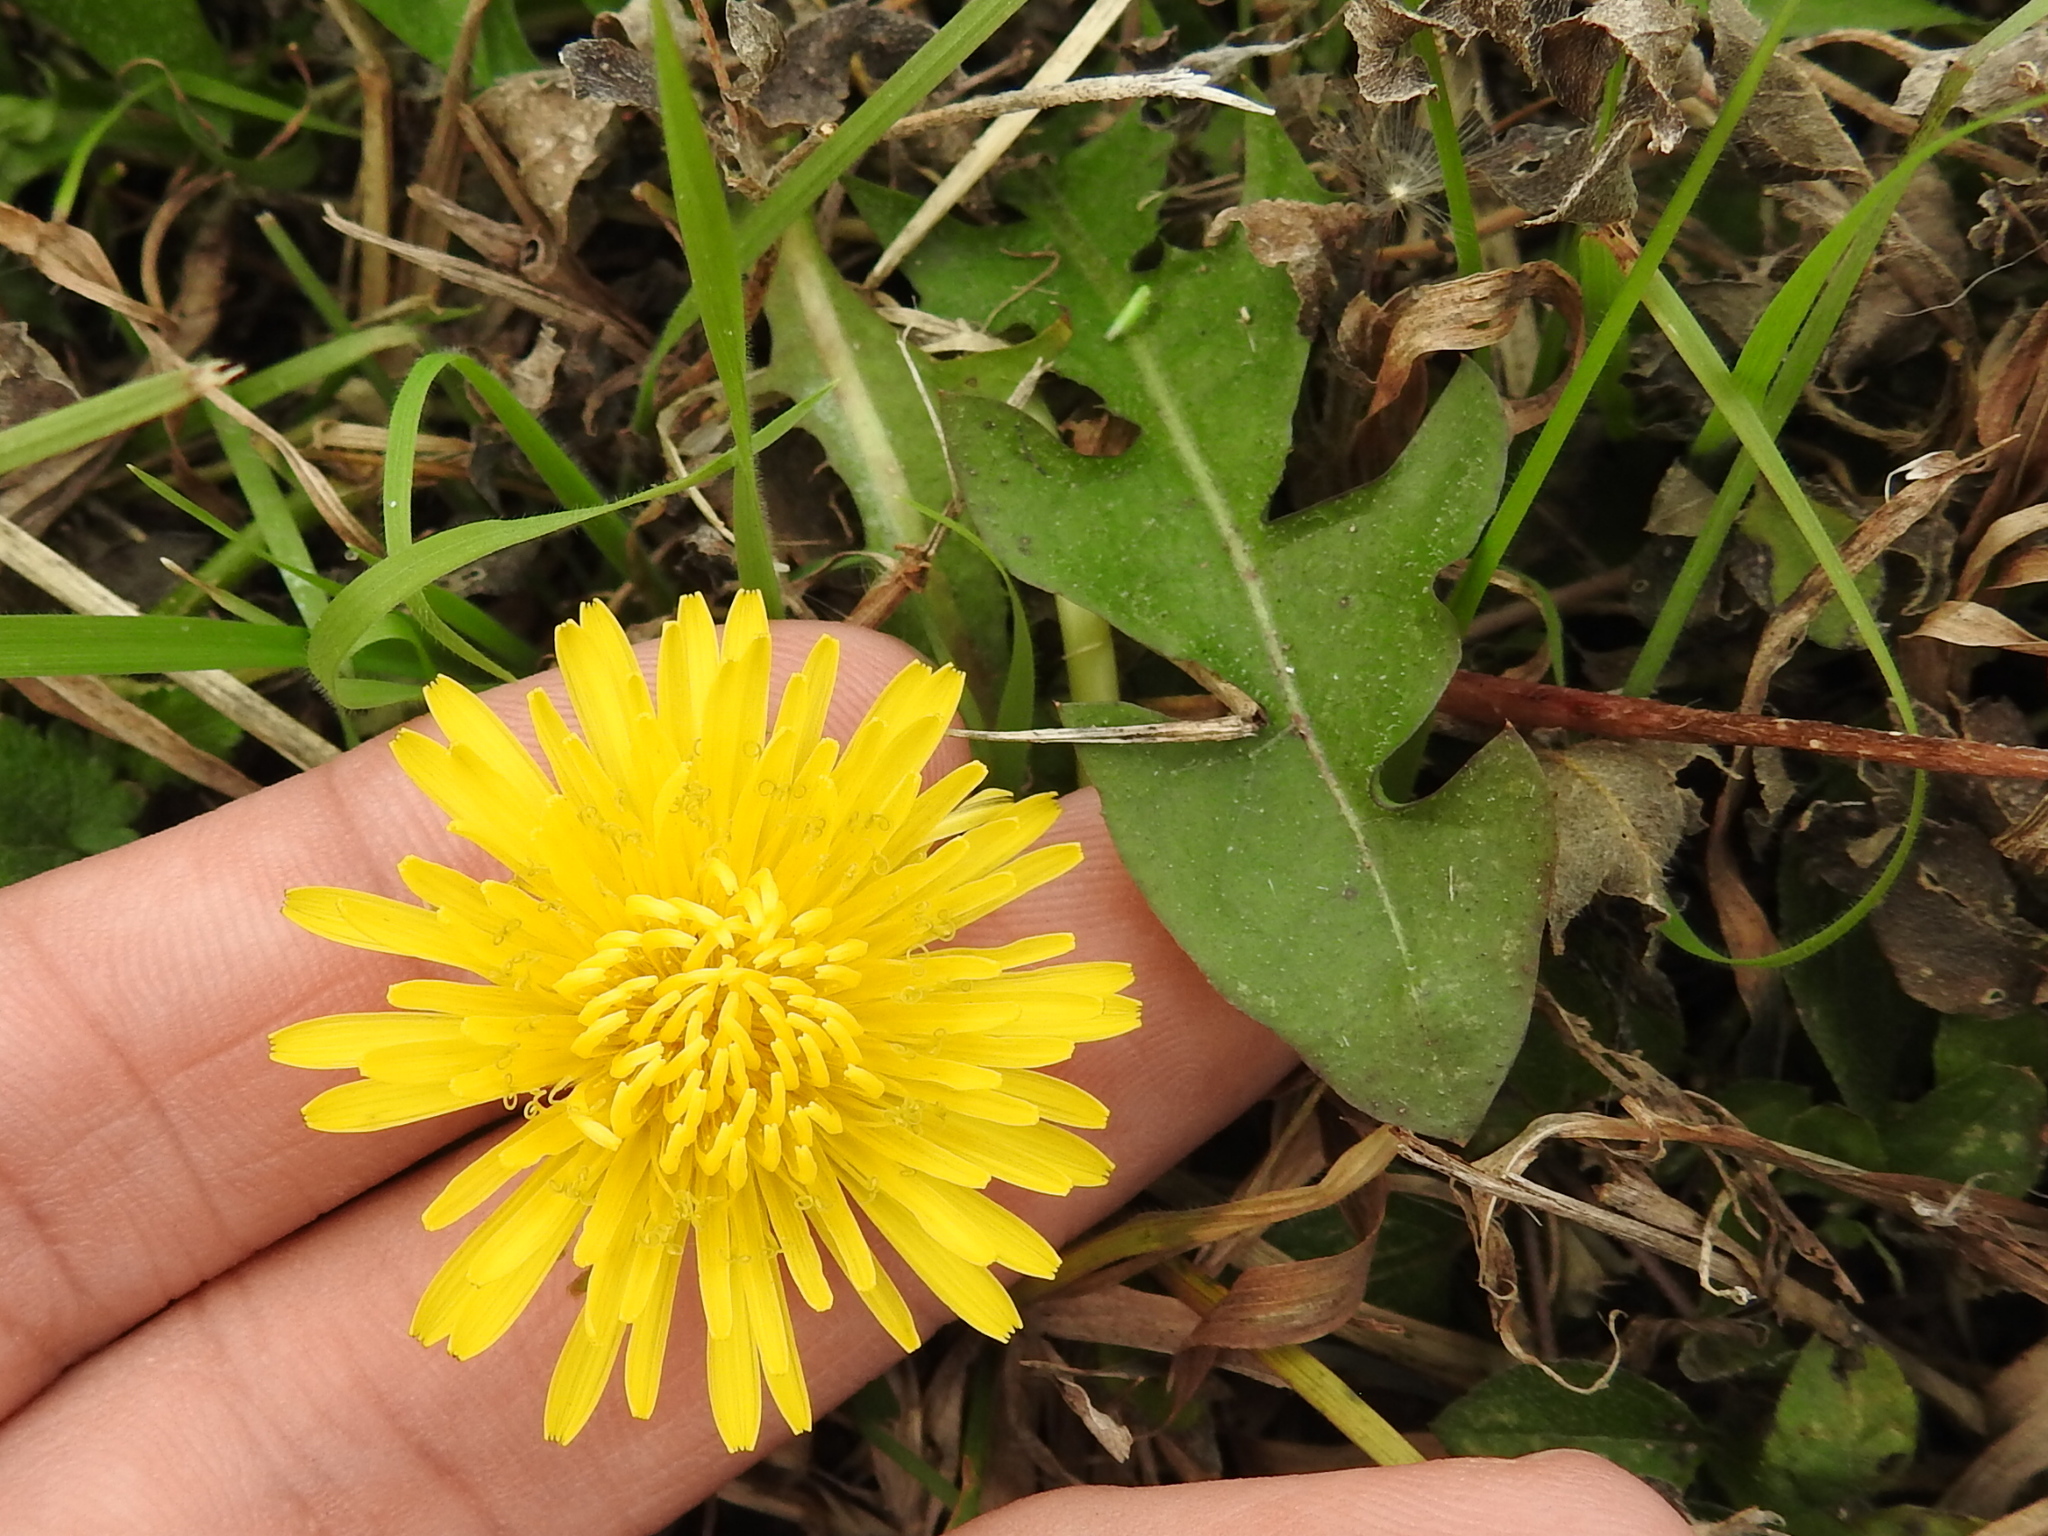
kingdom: Plantae
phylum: Tracheophyta
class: Magnoliopsida
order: Asterales
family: Asteraceae
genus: Taraxacum
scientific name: Taraxacum officinale
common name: Common dandelion
